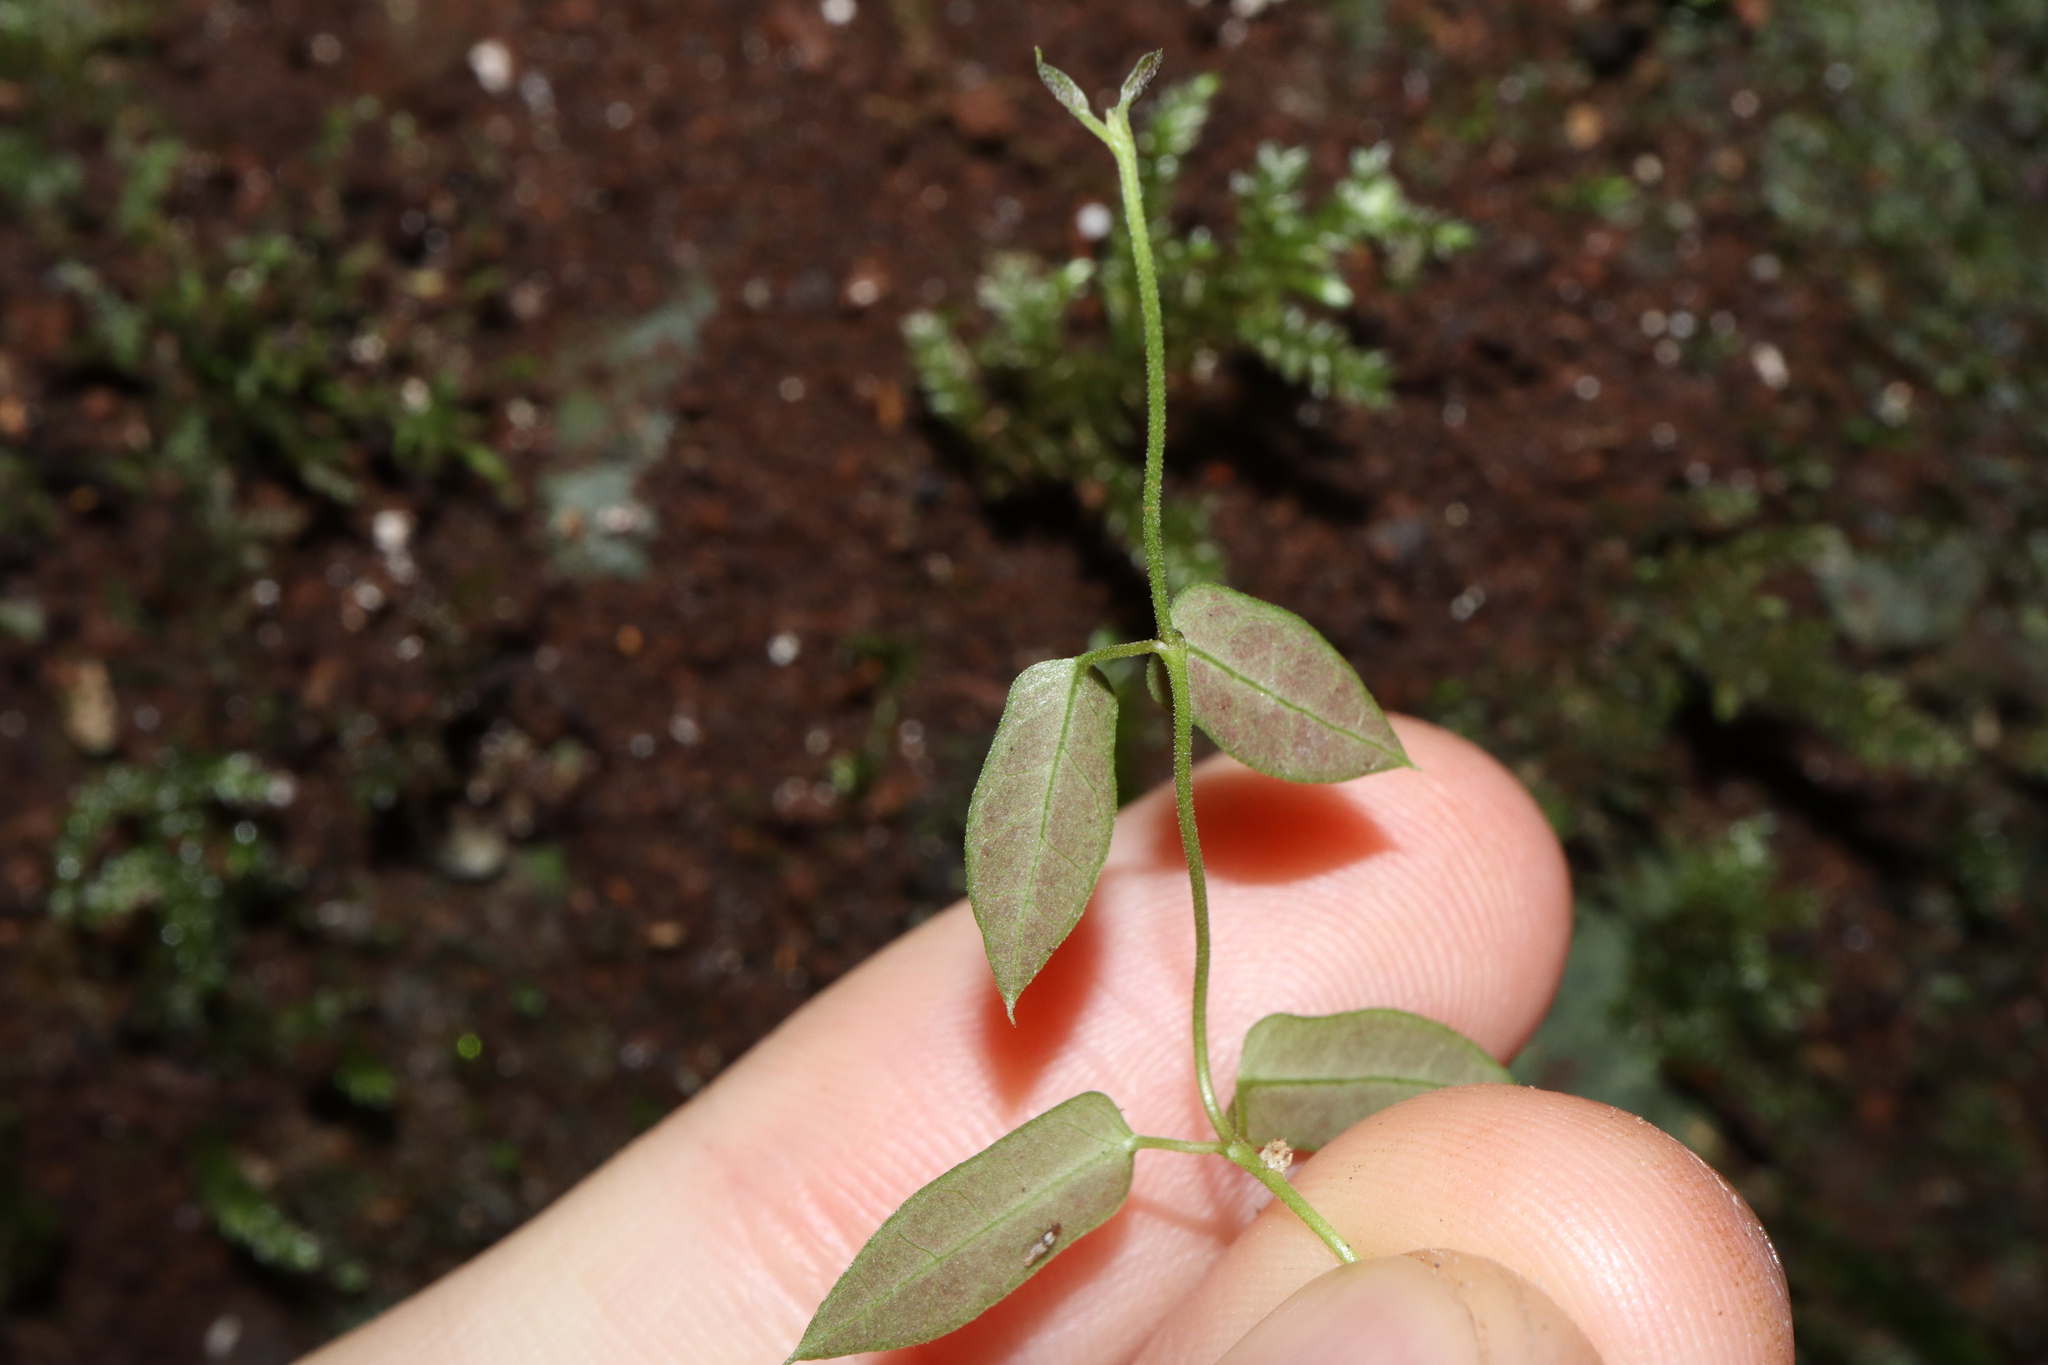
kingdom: Plantae
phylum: Tracheophyta
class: Magnoliopsida
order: Gentianales
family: Apocynaceae
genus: Parsonsia
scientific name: Parsonsia straminea
